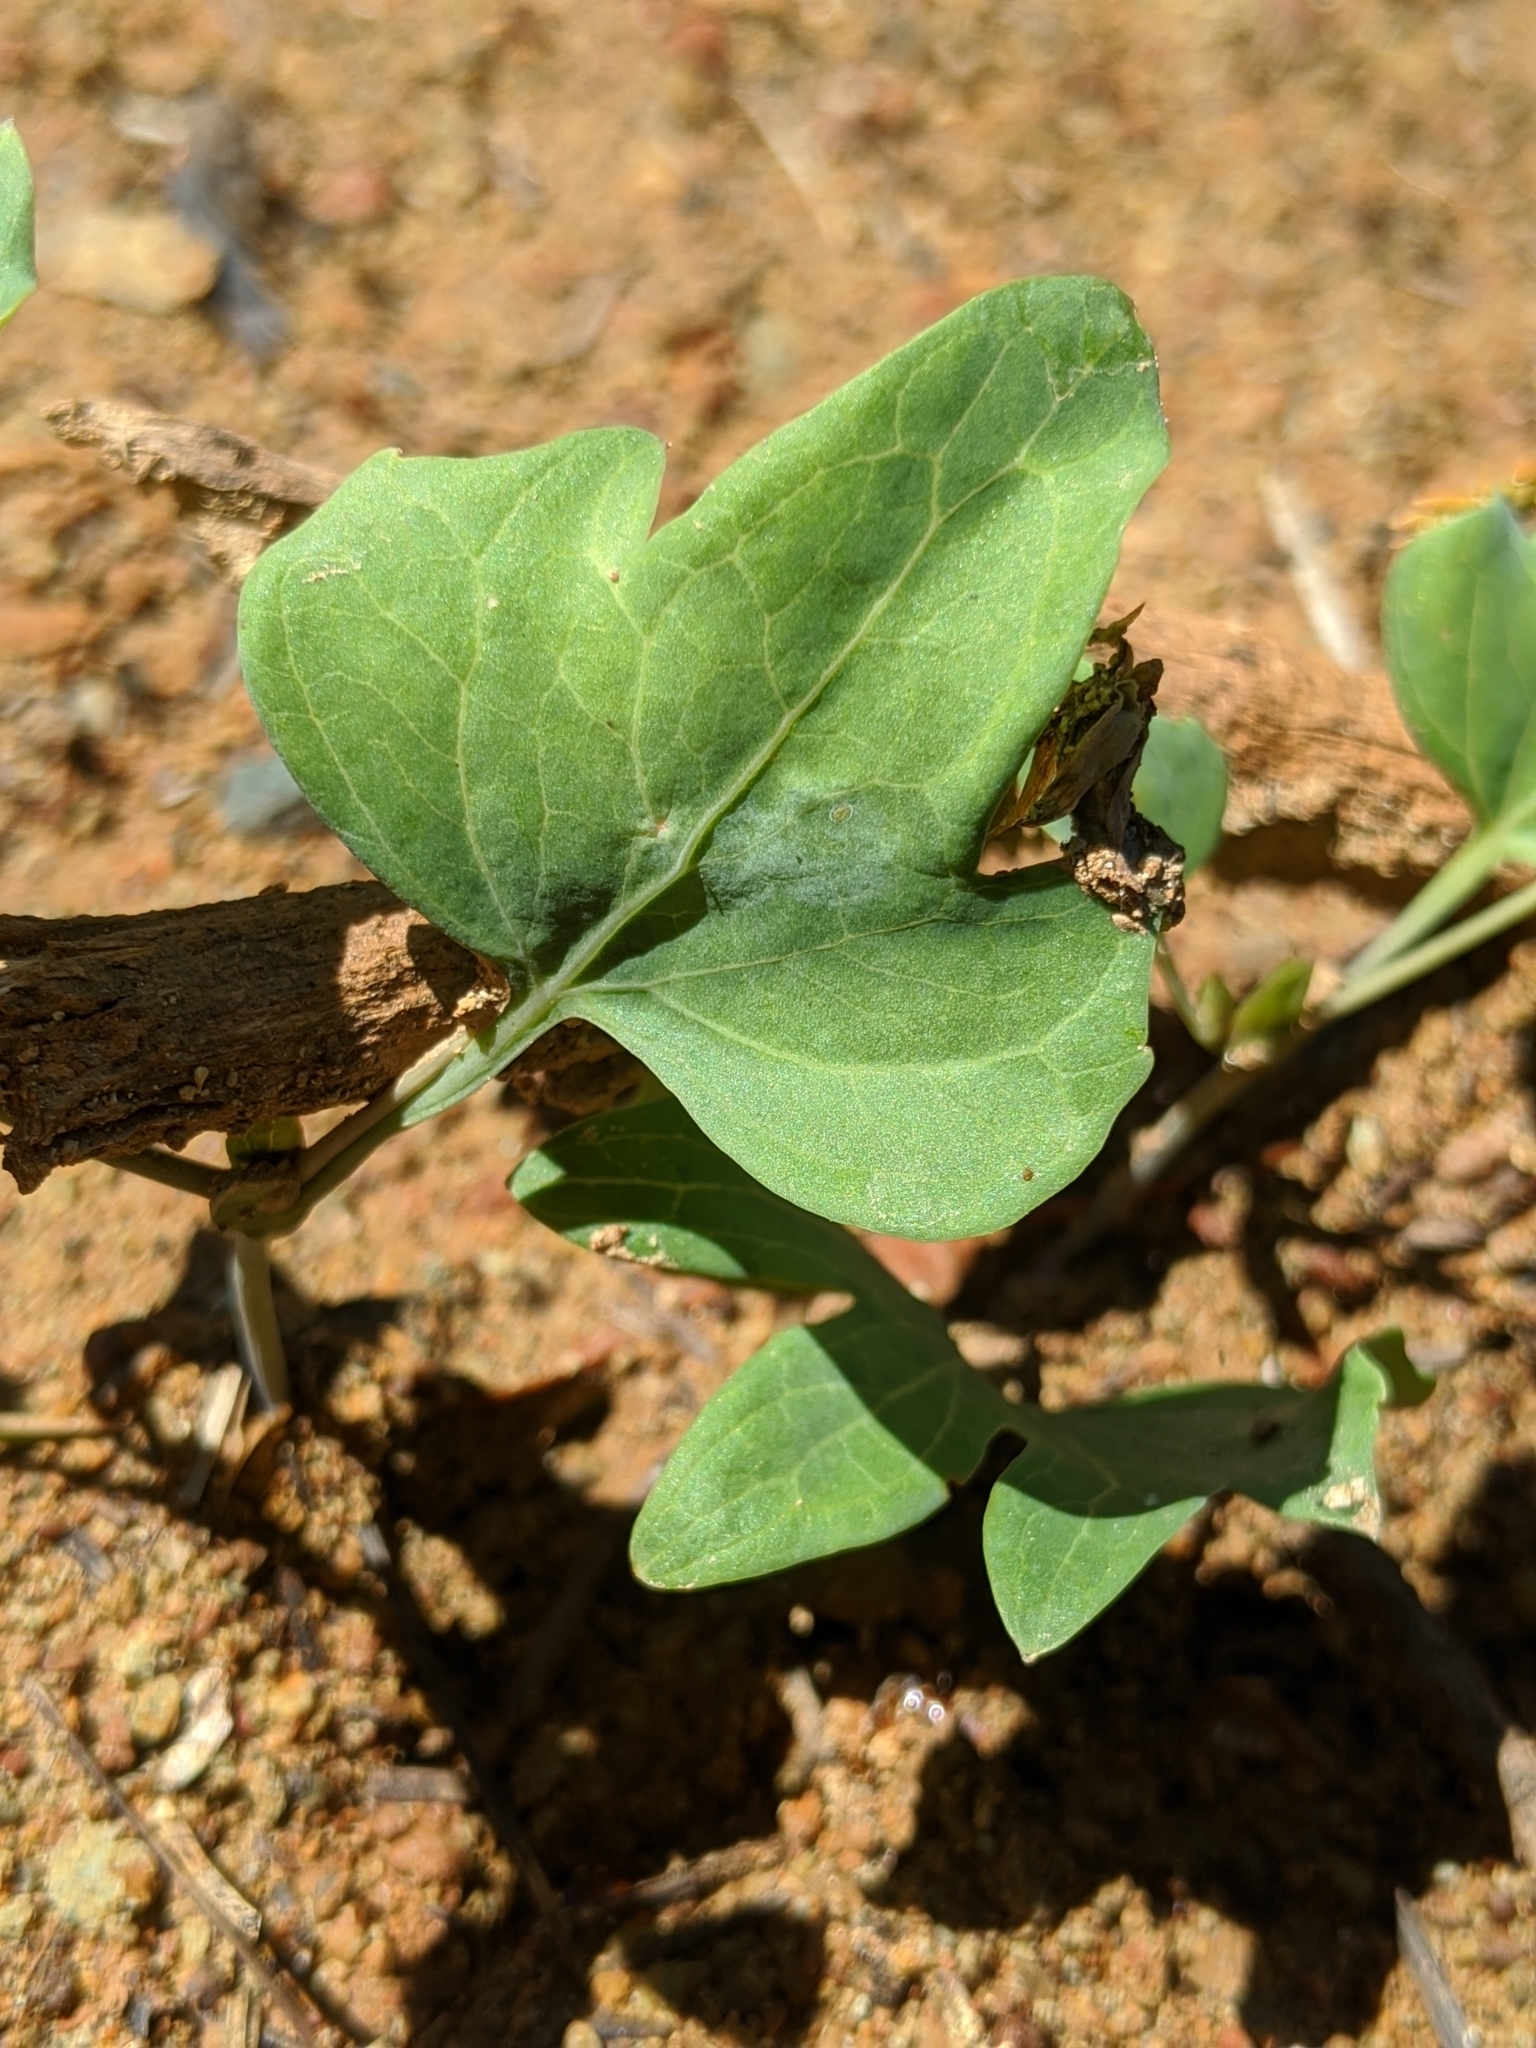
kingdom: Plantae
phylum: Tracheophyta
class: Magnoliopsida
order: Malpighiales
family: Violaceae
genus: Viola
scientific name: Viola lobata
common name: Pine violet
